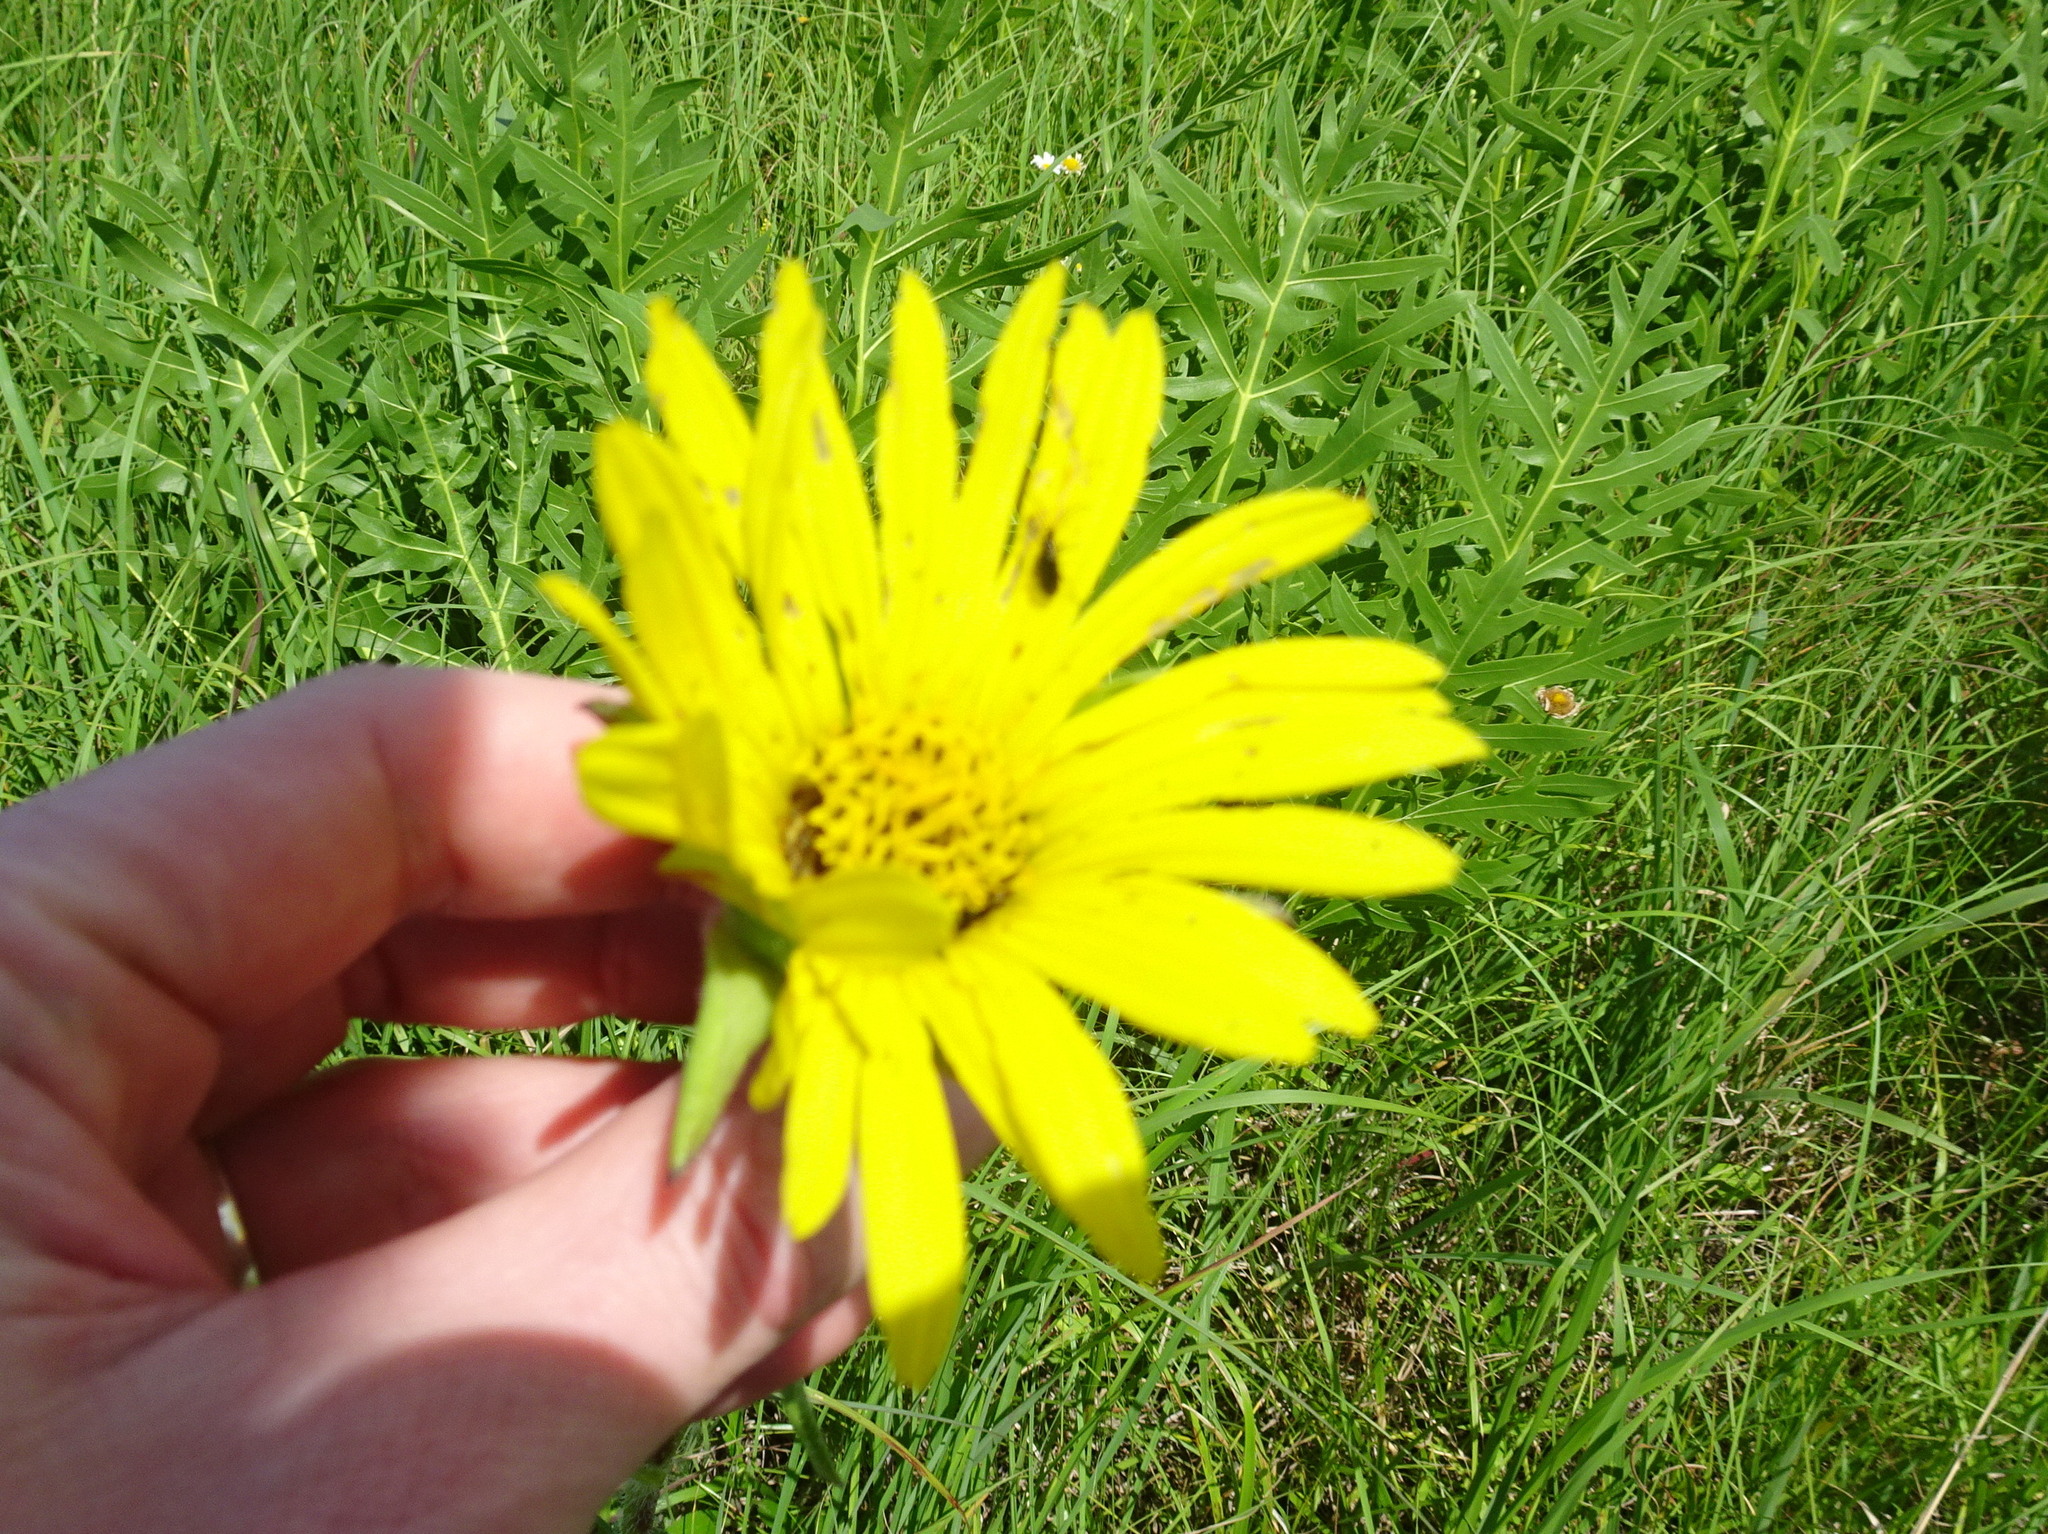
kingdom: Plantae
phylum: Tracheophyta
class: Magnoliopsida
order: Asterales
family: Asteraceae
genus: Silphium
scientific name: Silphium laciniatum
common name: Polarplant
